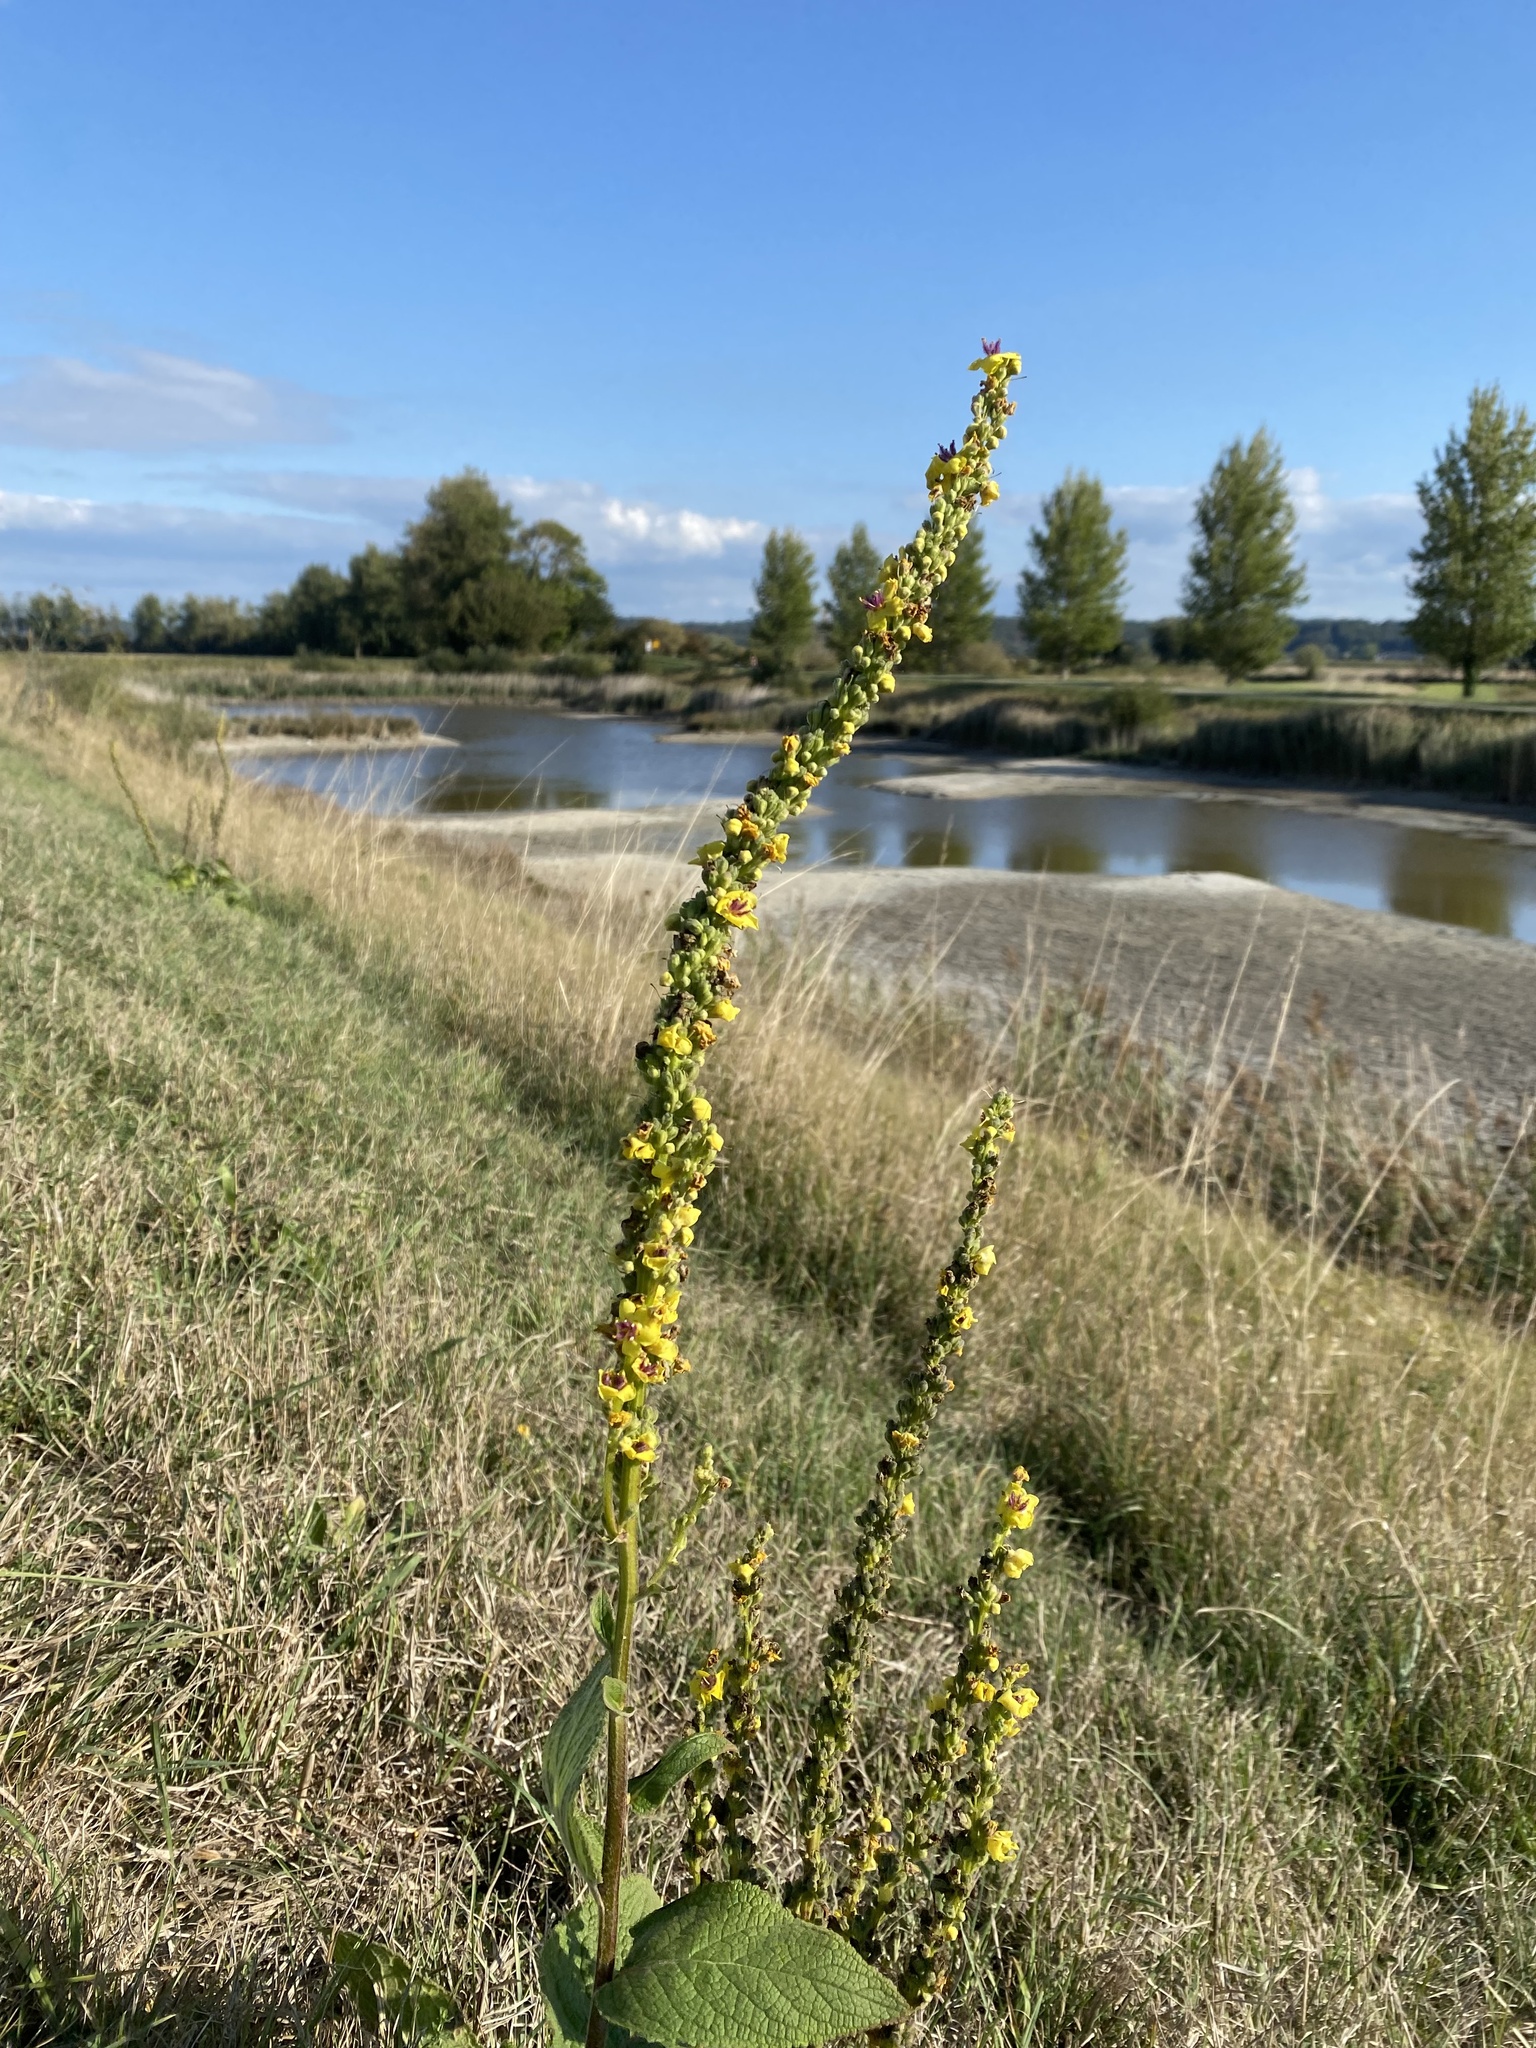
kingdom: Plantae
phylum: Tracheophyta
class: Magnoliopsida
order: Lamiales
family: Scrophulariaceae
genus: Verbascum
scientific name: Verbascum nigrum
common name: Dark mullein
